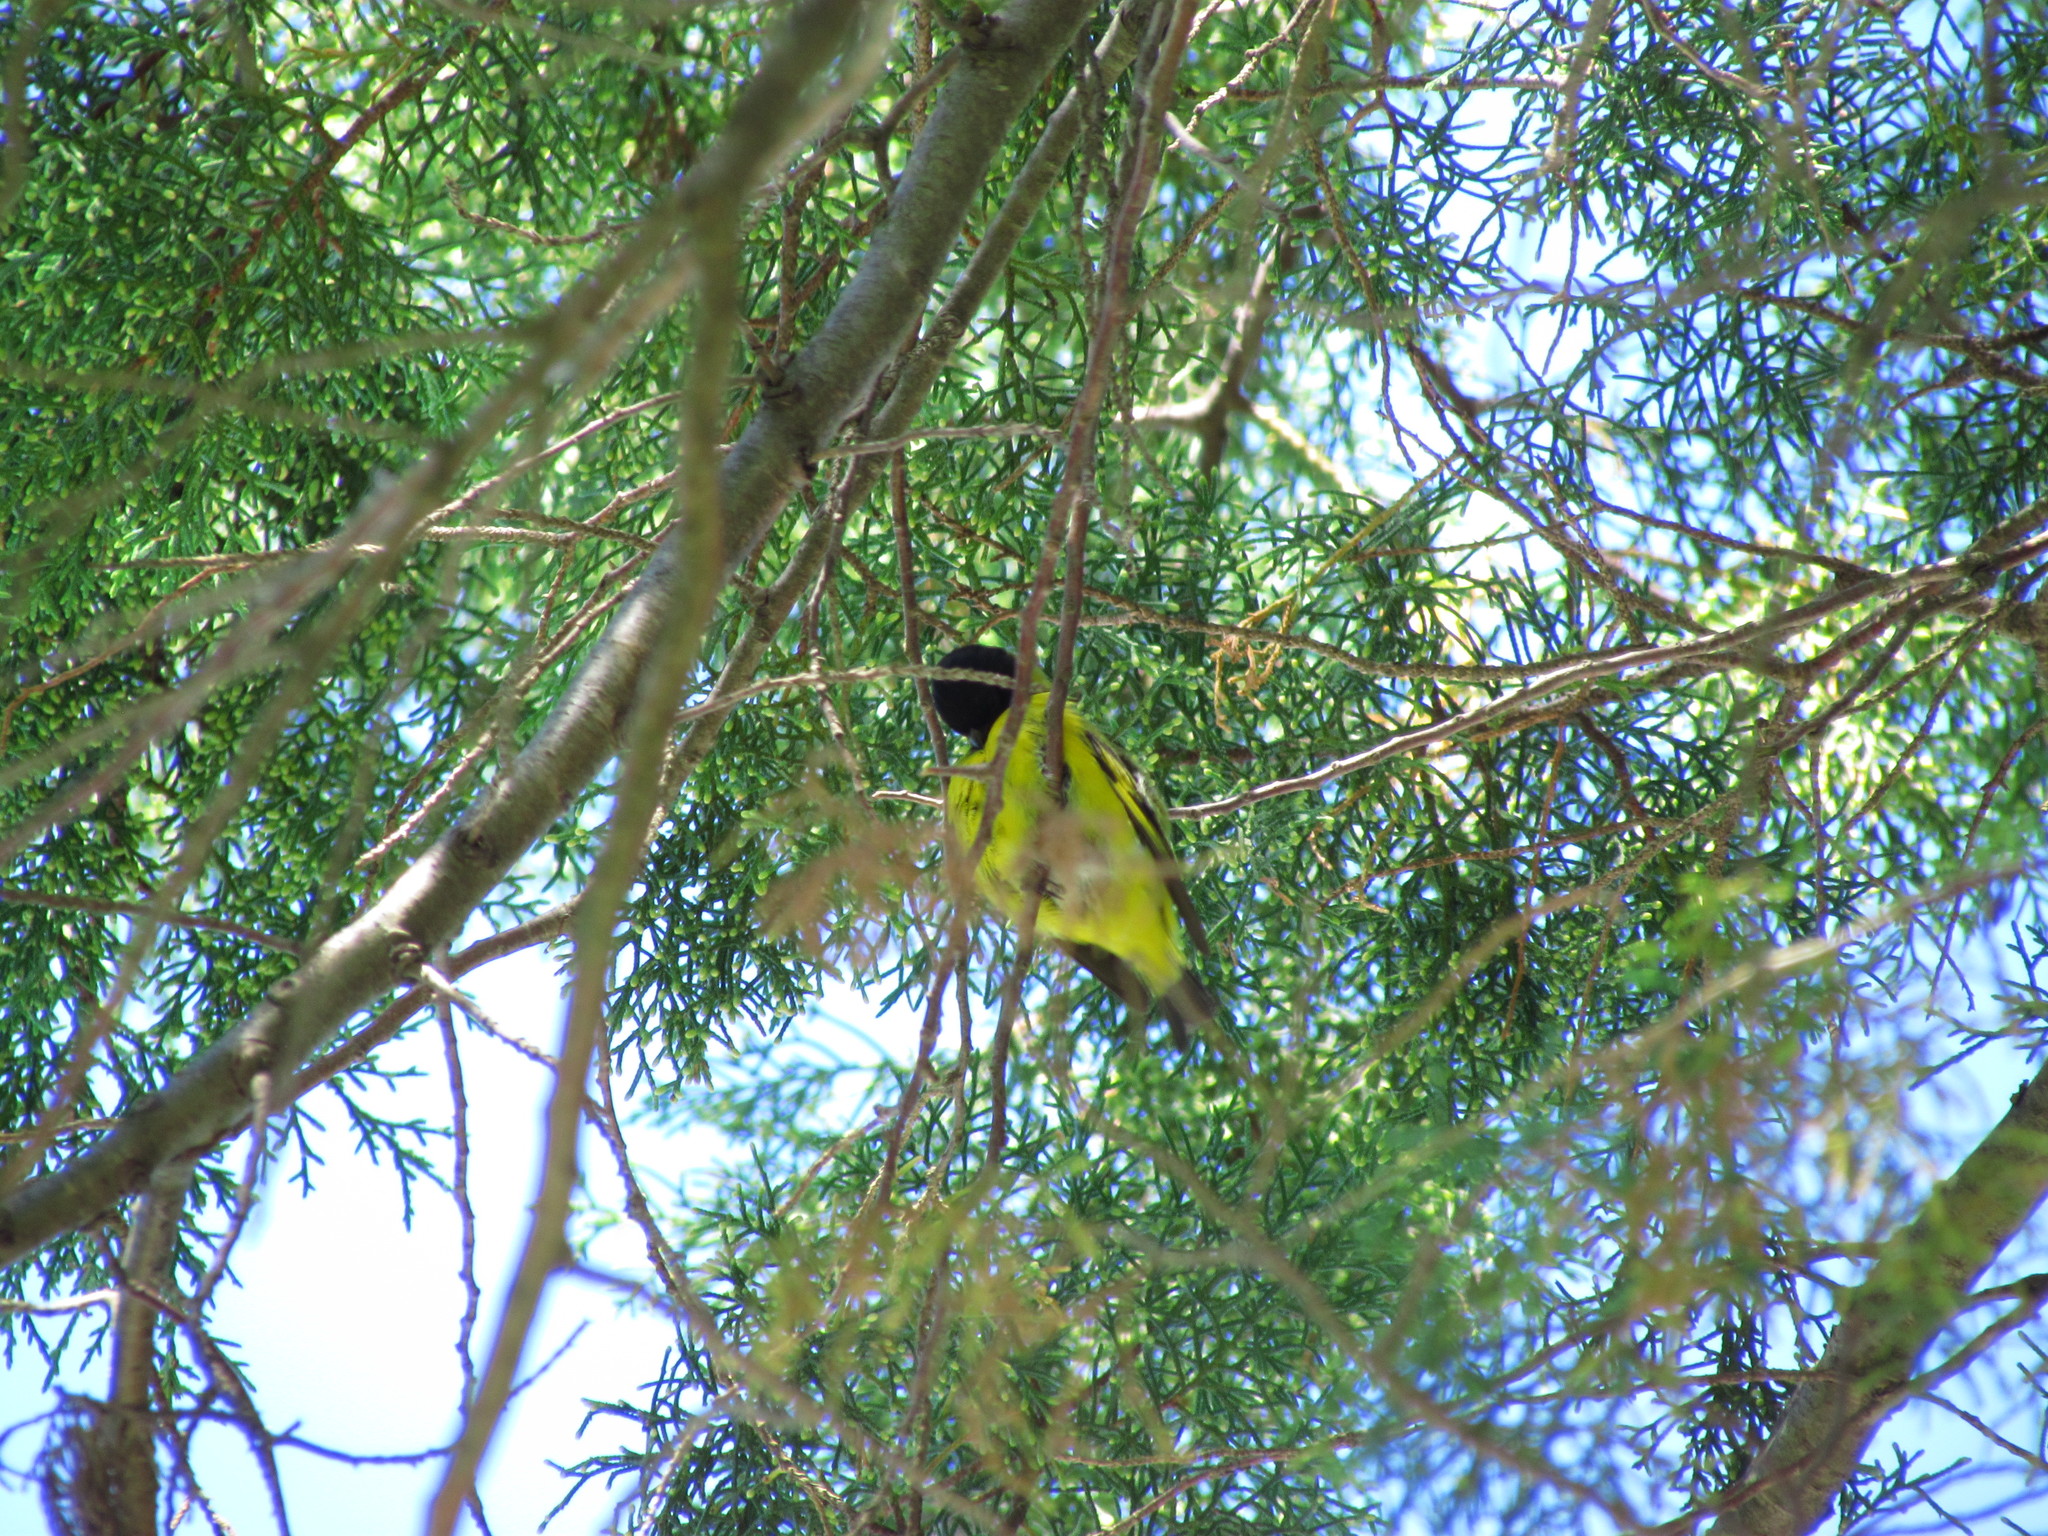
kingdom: Animalia
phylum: Chordata
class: Aves
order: Passeriformes
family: Fringillidae
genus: Spinus
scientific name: Spinus magellanicus
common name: Hooded siskin
